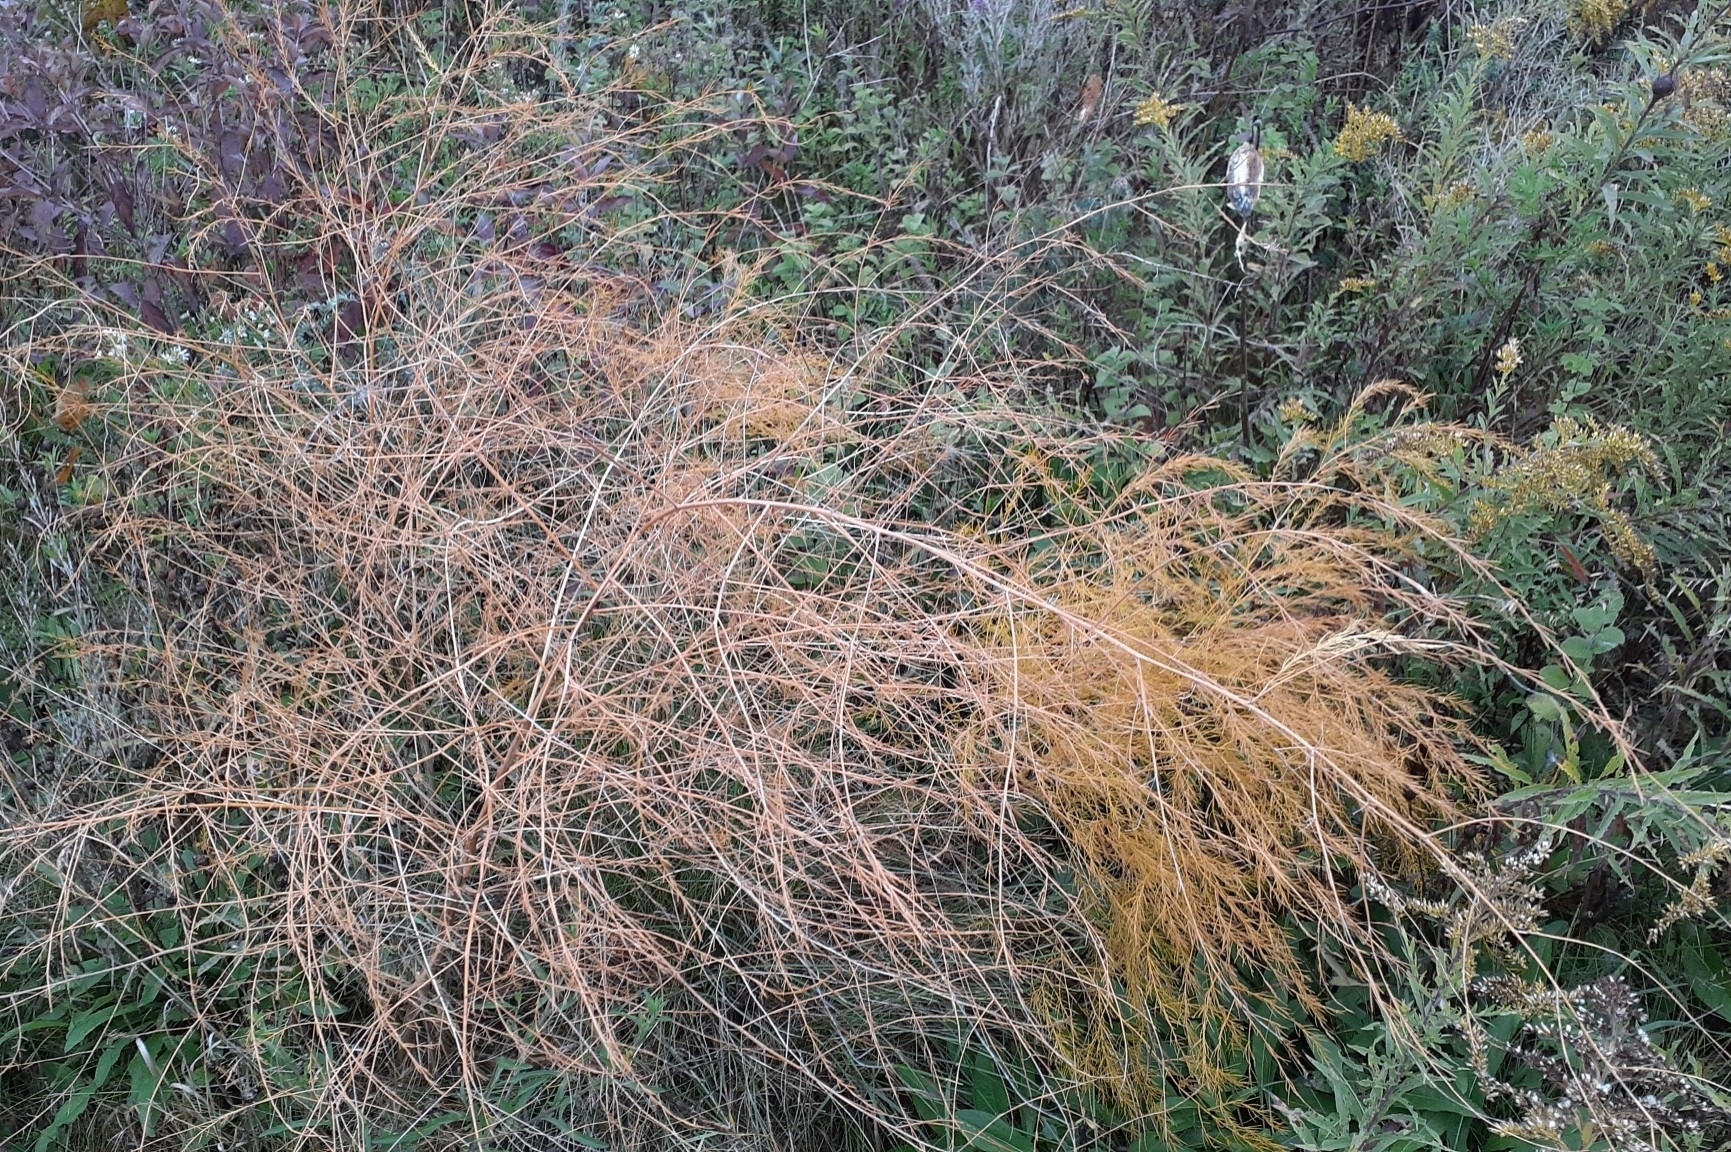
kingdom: Plantae
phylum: Tracheophyta
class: Liliopsida
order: Asparagales
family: Asparagaceae
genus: Asparagus
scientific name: Asparagus officinalis
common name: Garden asparagus
